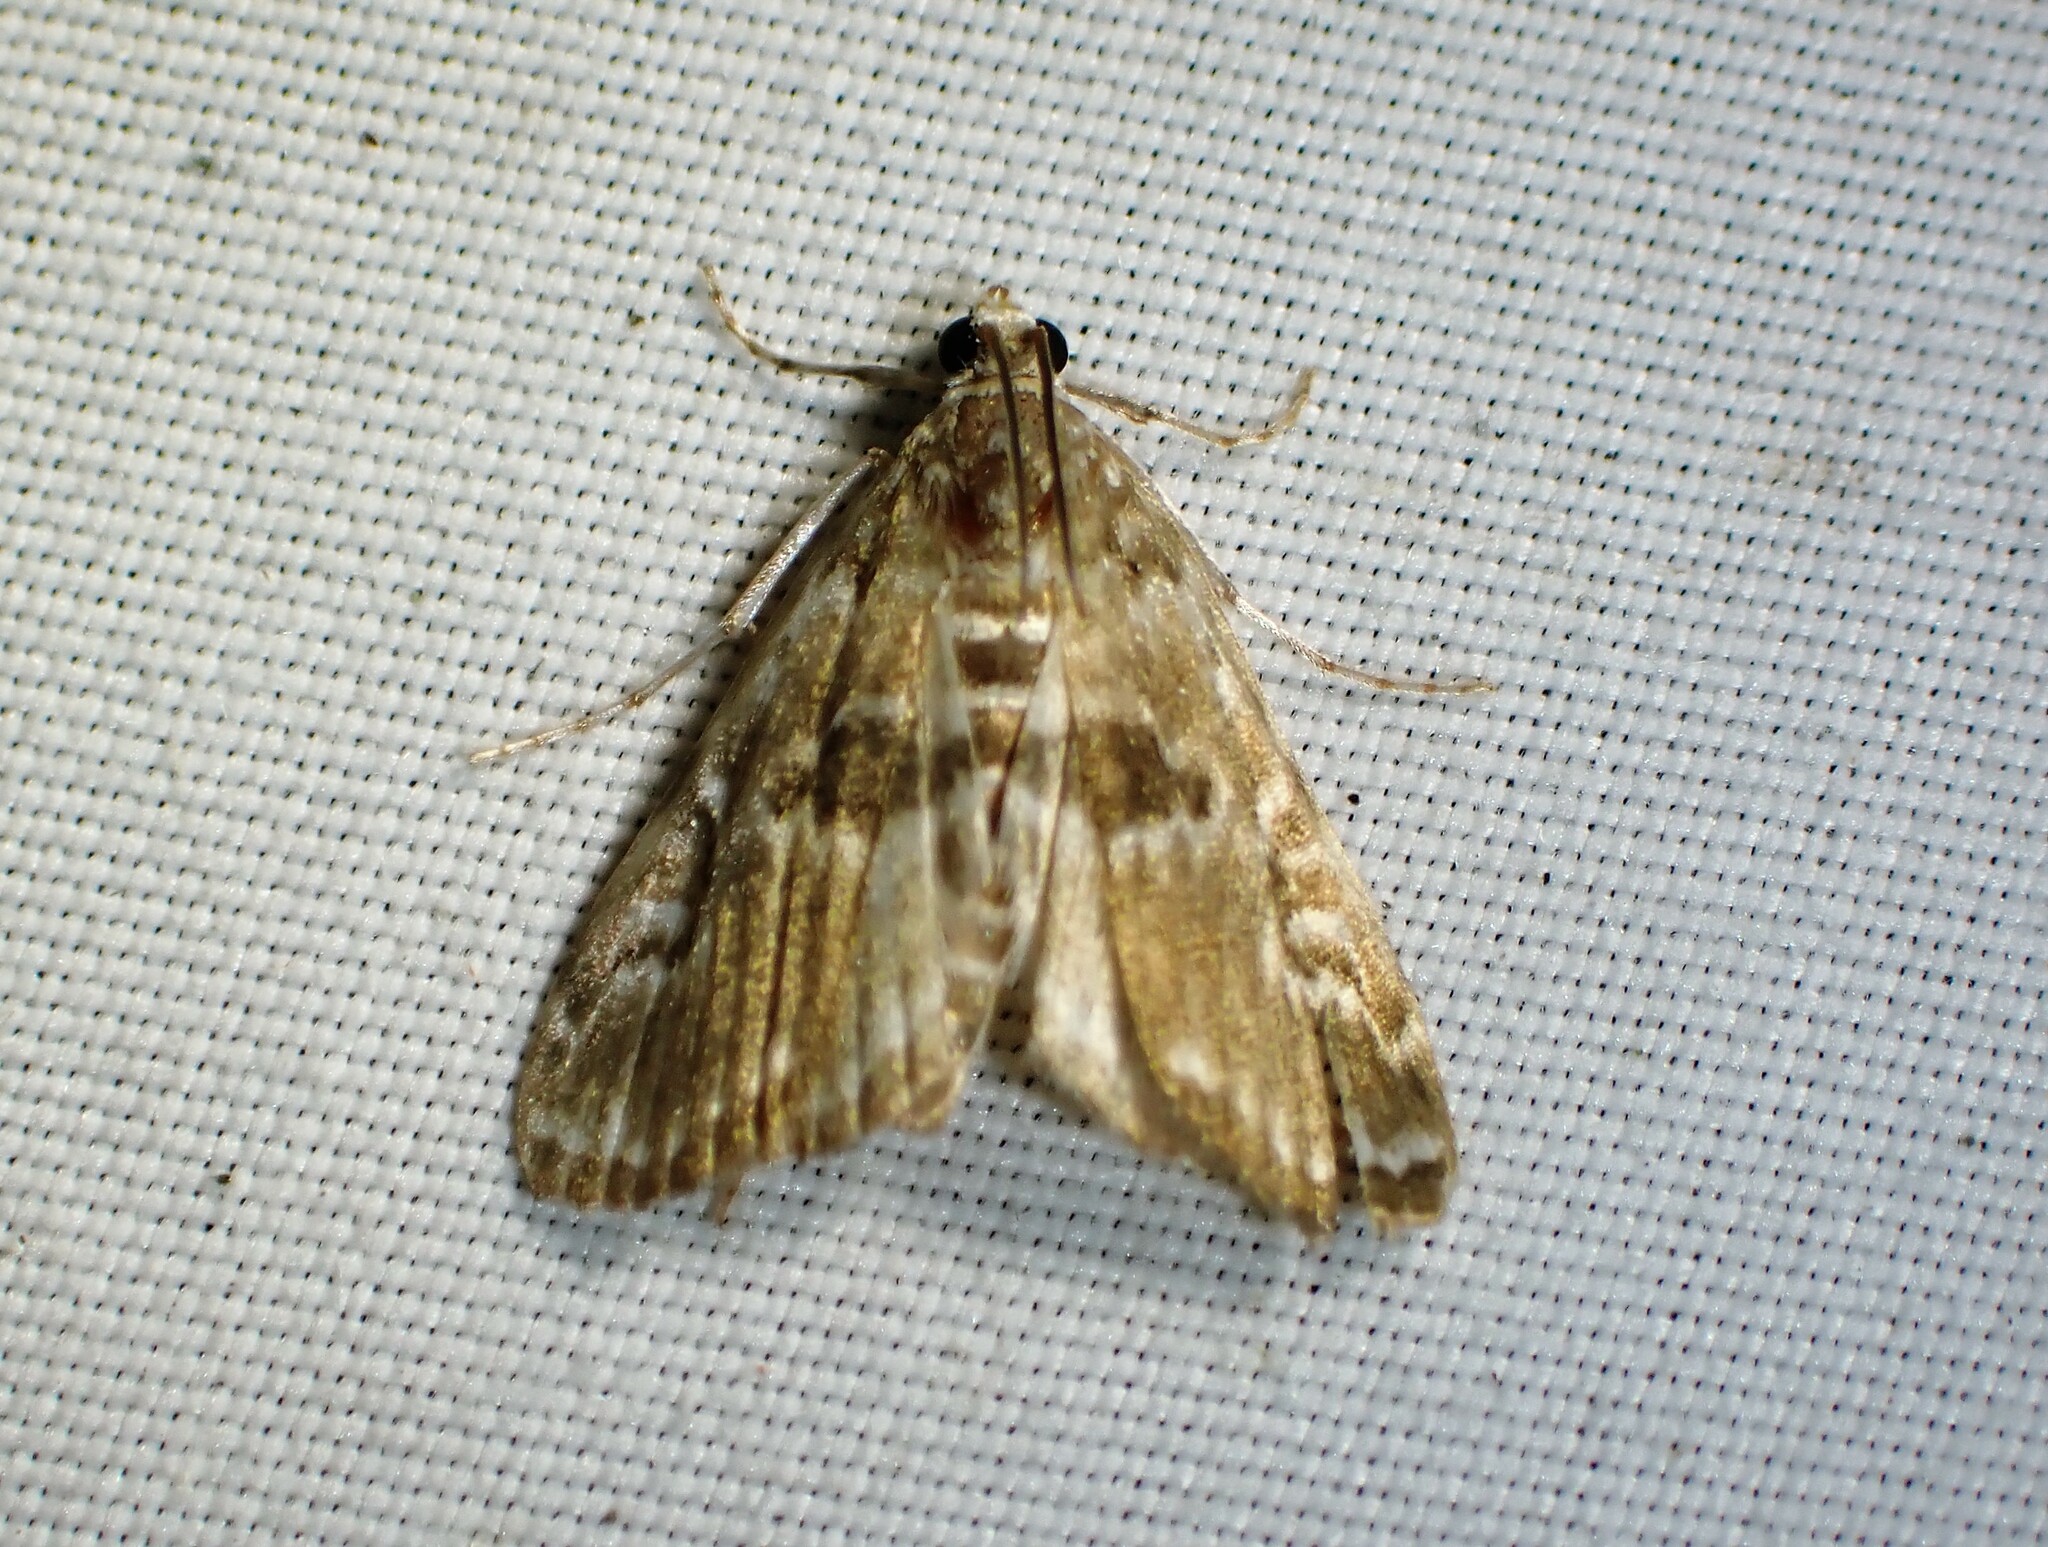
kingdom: Animalia
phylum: Arthropoda
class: Insecta
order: Lepidoptera
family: Crambidae
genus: Elophila
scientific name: Elophila gyralis
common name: Waterlily borer moth
